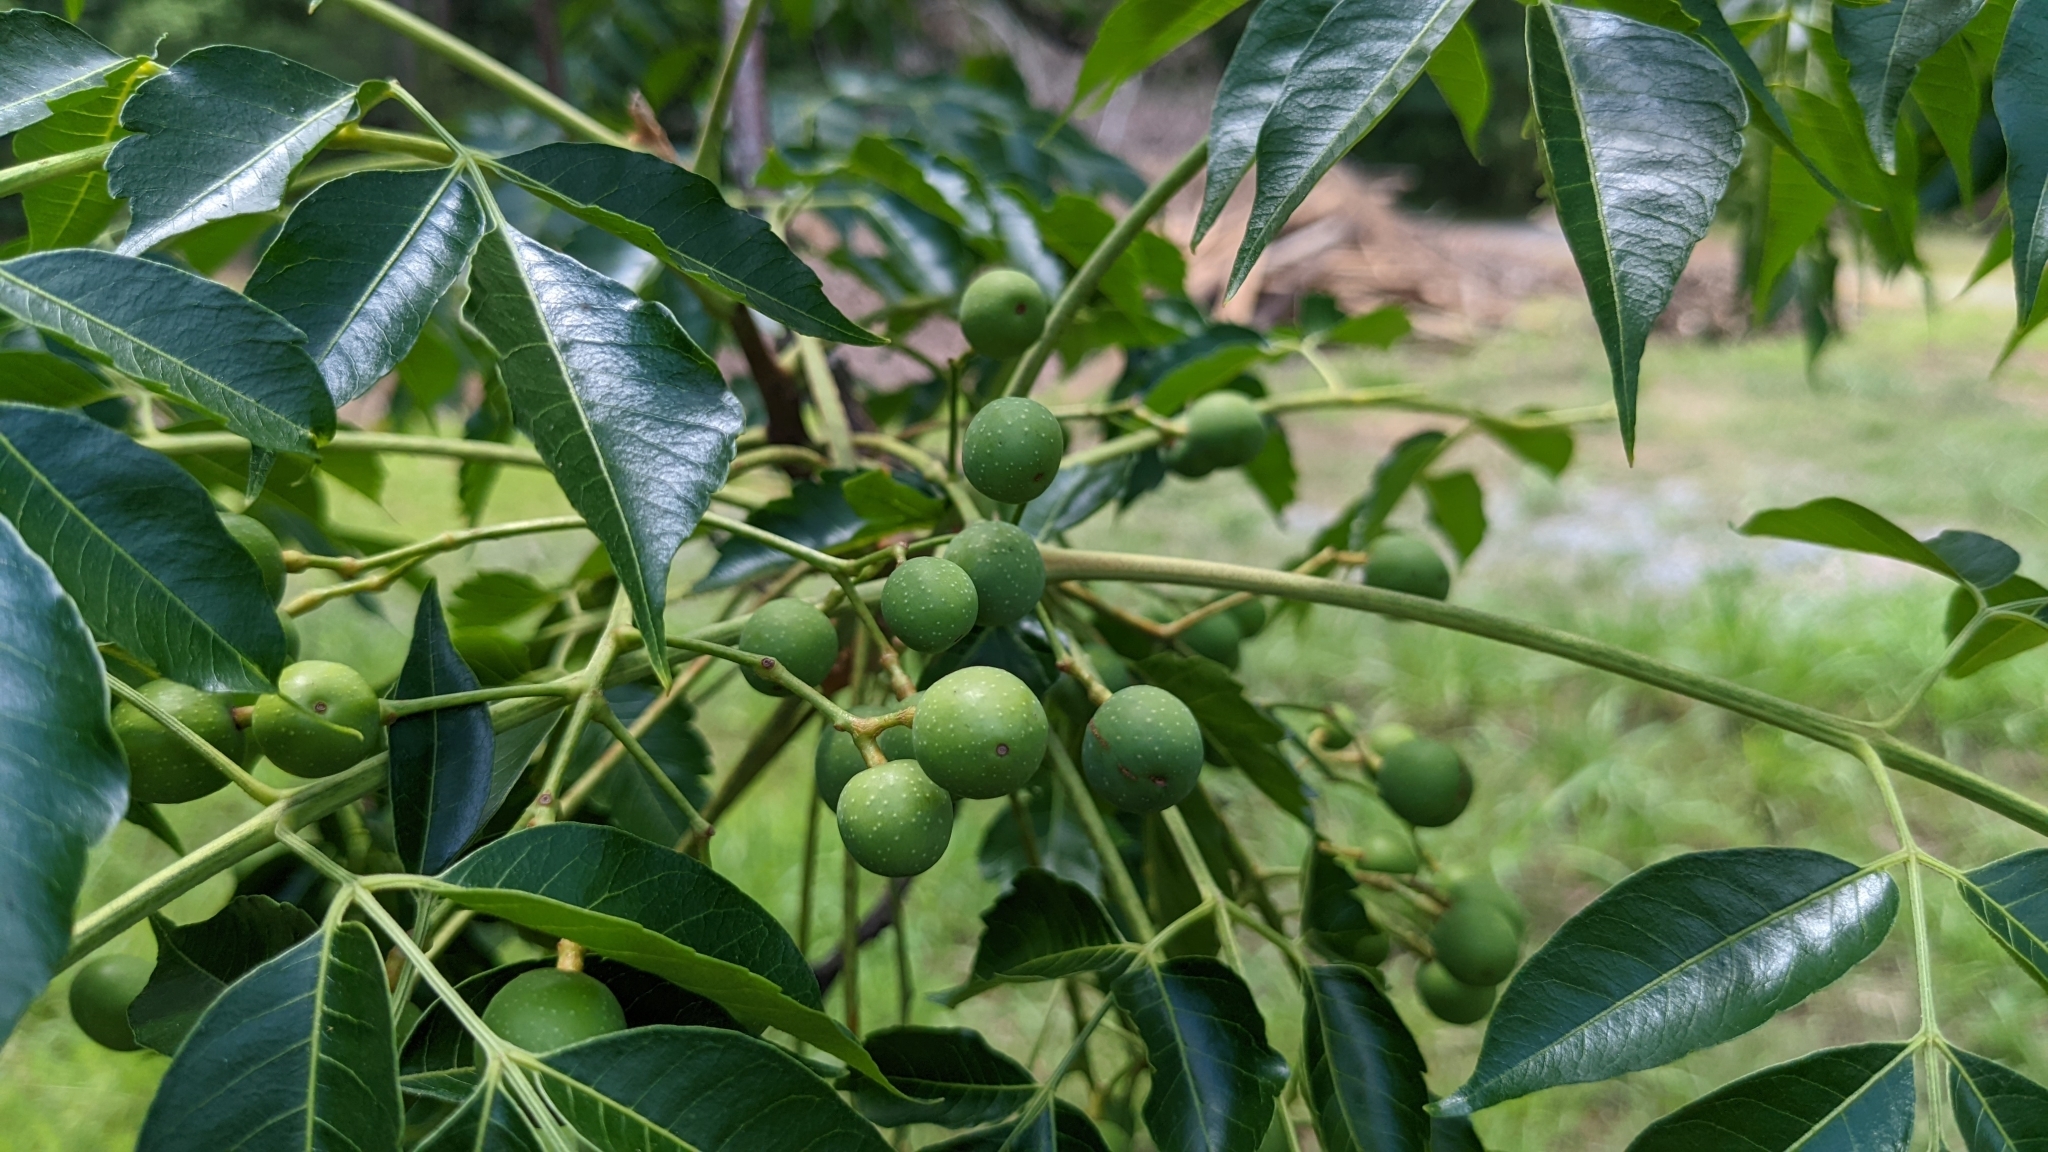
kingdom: Plantae
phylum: Tracheophyta
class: Magnoliopsida
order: Sapindales
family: Meliaceae
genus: Melia
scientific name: Melia azedarach
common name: Chinaberrytree
